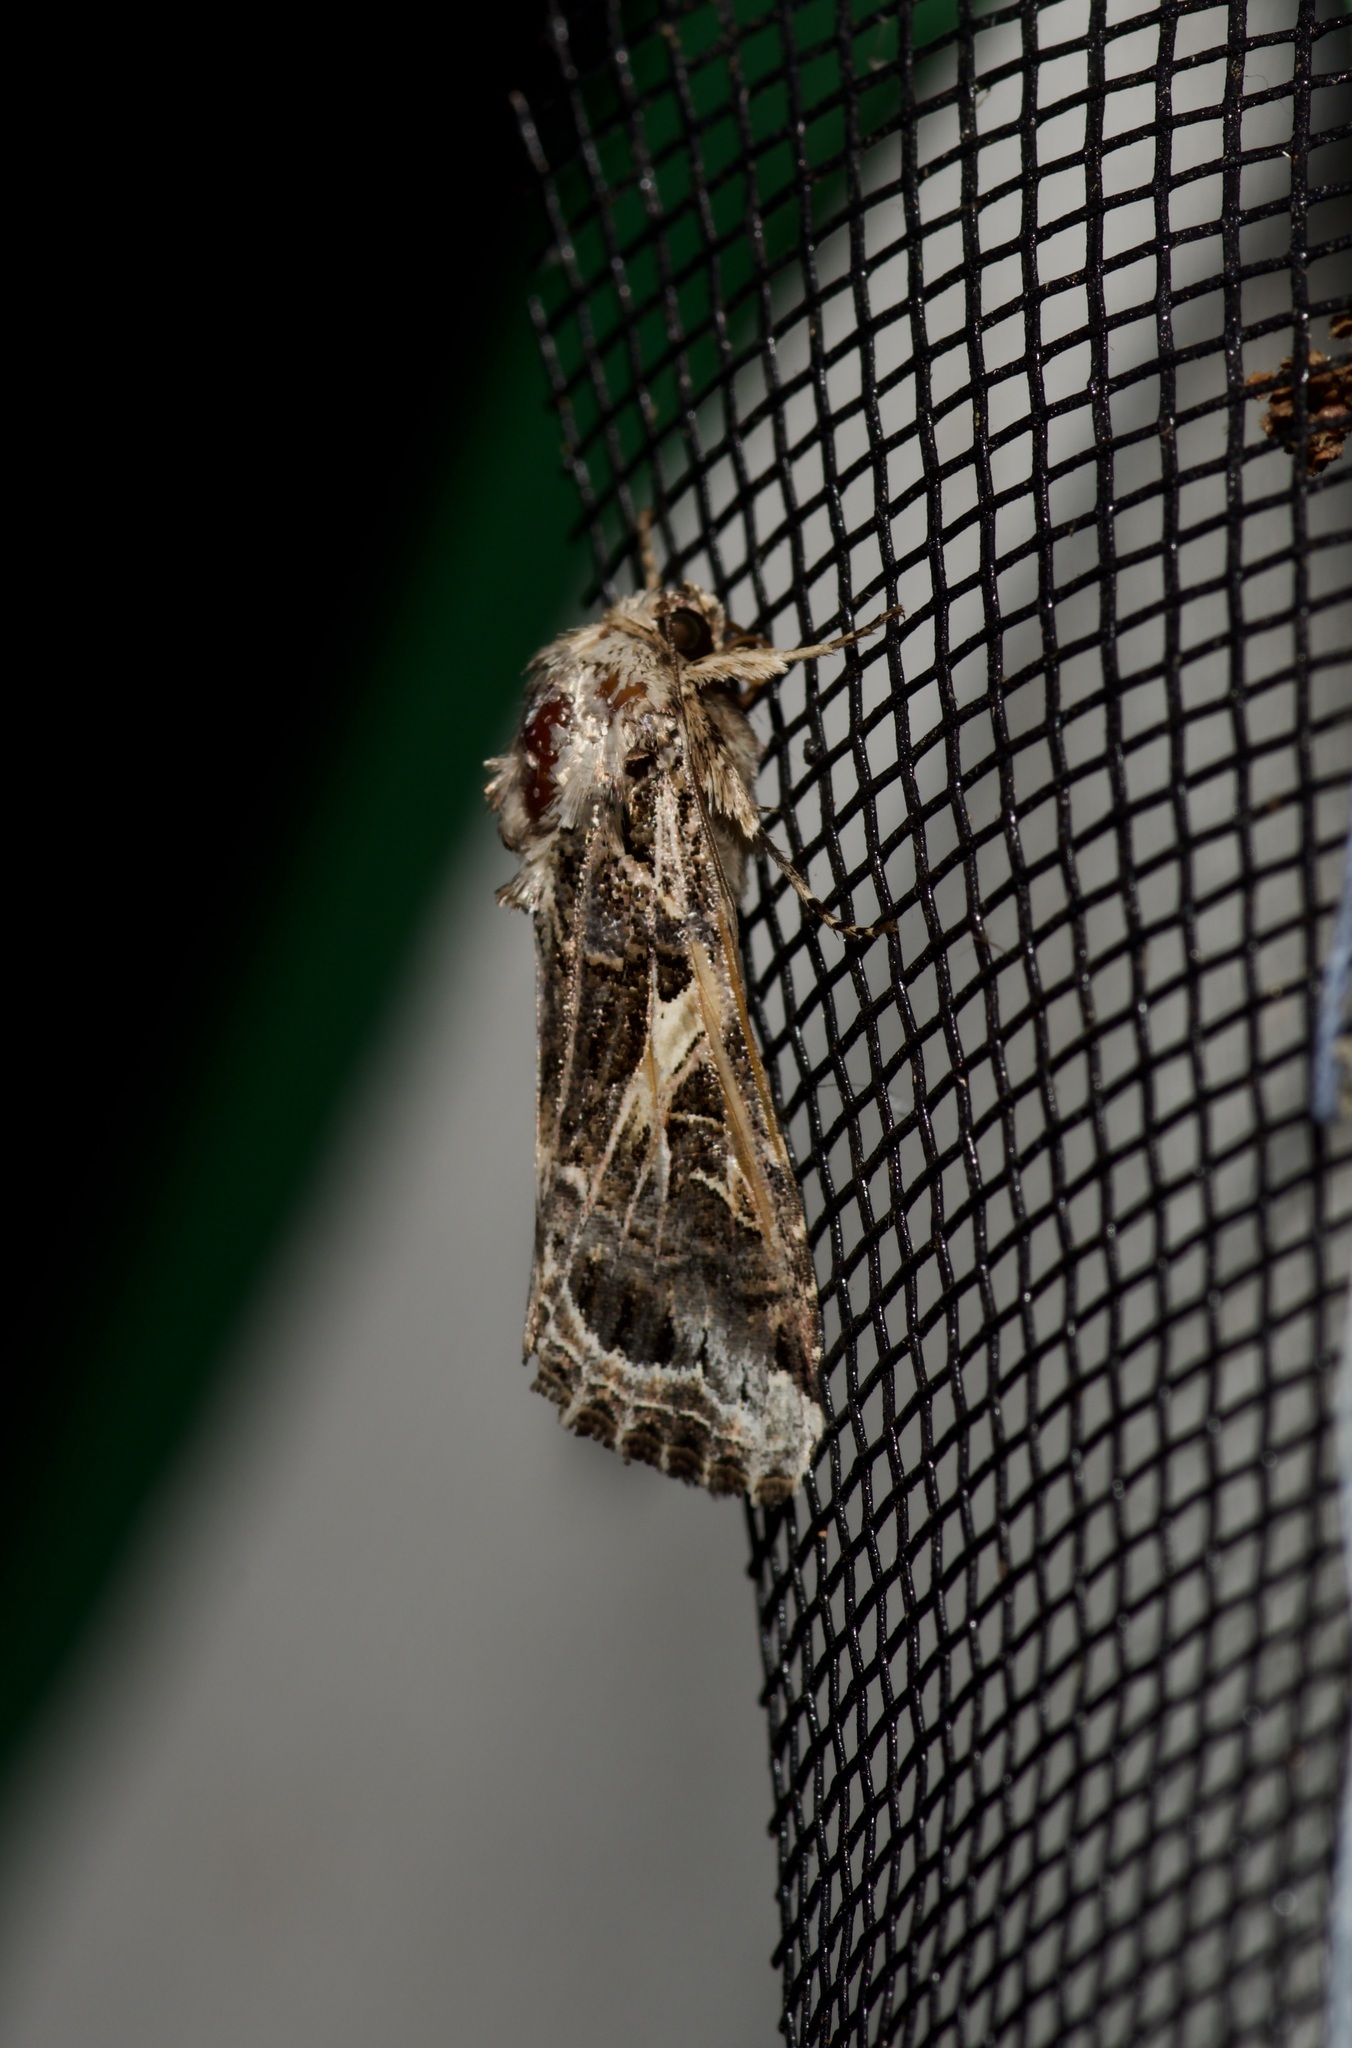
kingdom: Animalia
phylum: Arthropoda
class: Insecta
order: Lepidoptera
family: Noctuidae
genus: Spodoptera
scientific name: Spodoptera ornithogalli
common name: Yellow-striped armyworm
